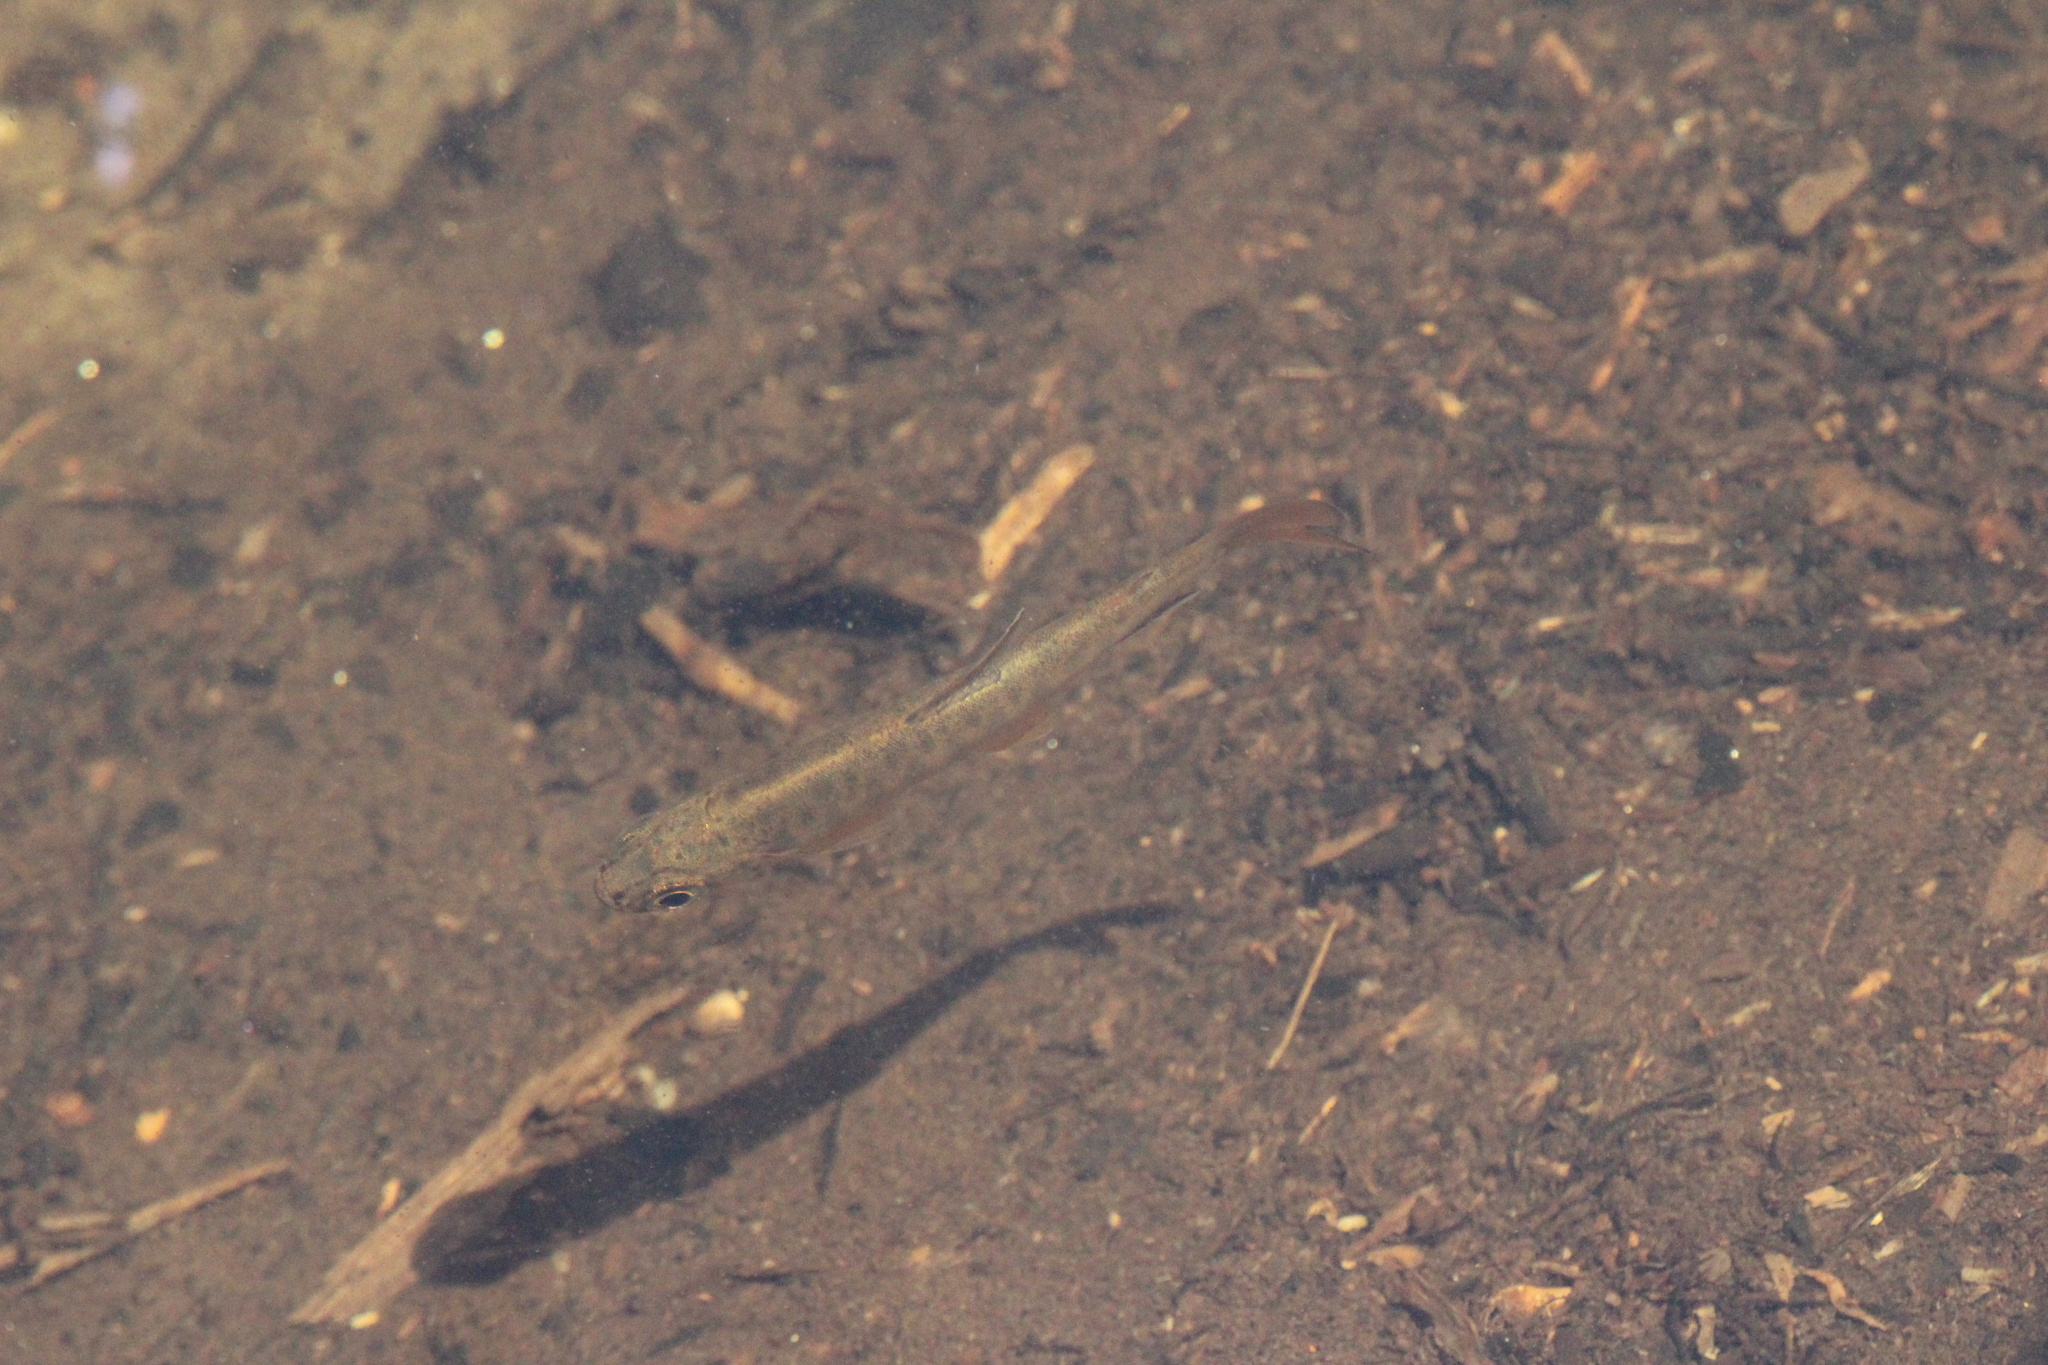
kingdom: Animalia
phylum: Chordata
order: Salmoniformes
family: Salmonidae
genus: Oncorhynchus
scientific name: Oncorhynchus kisutch
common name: Coho salmon
